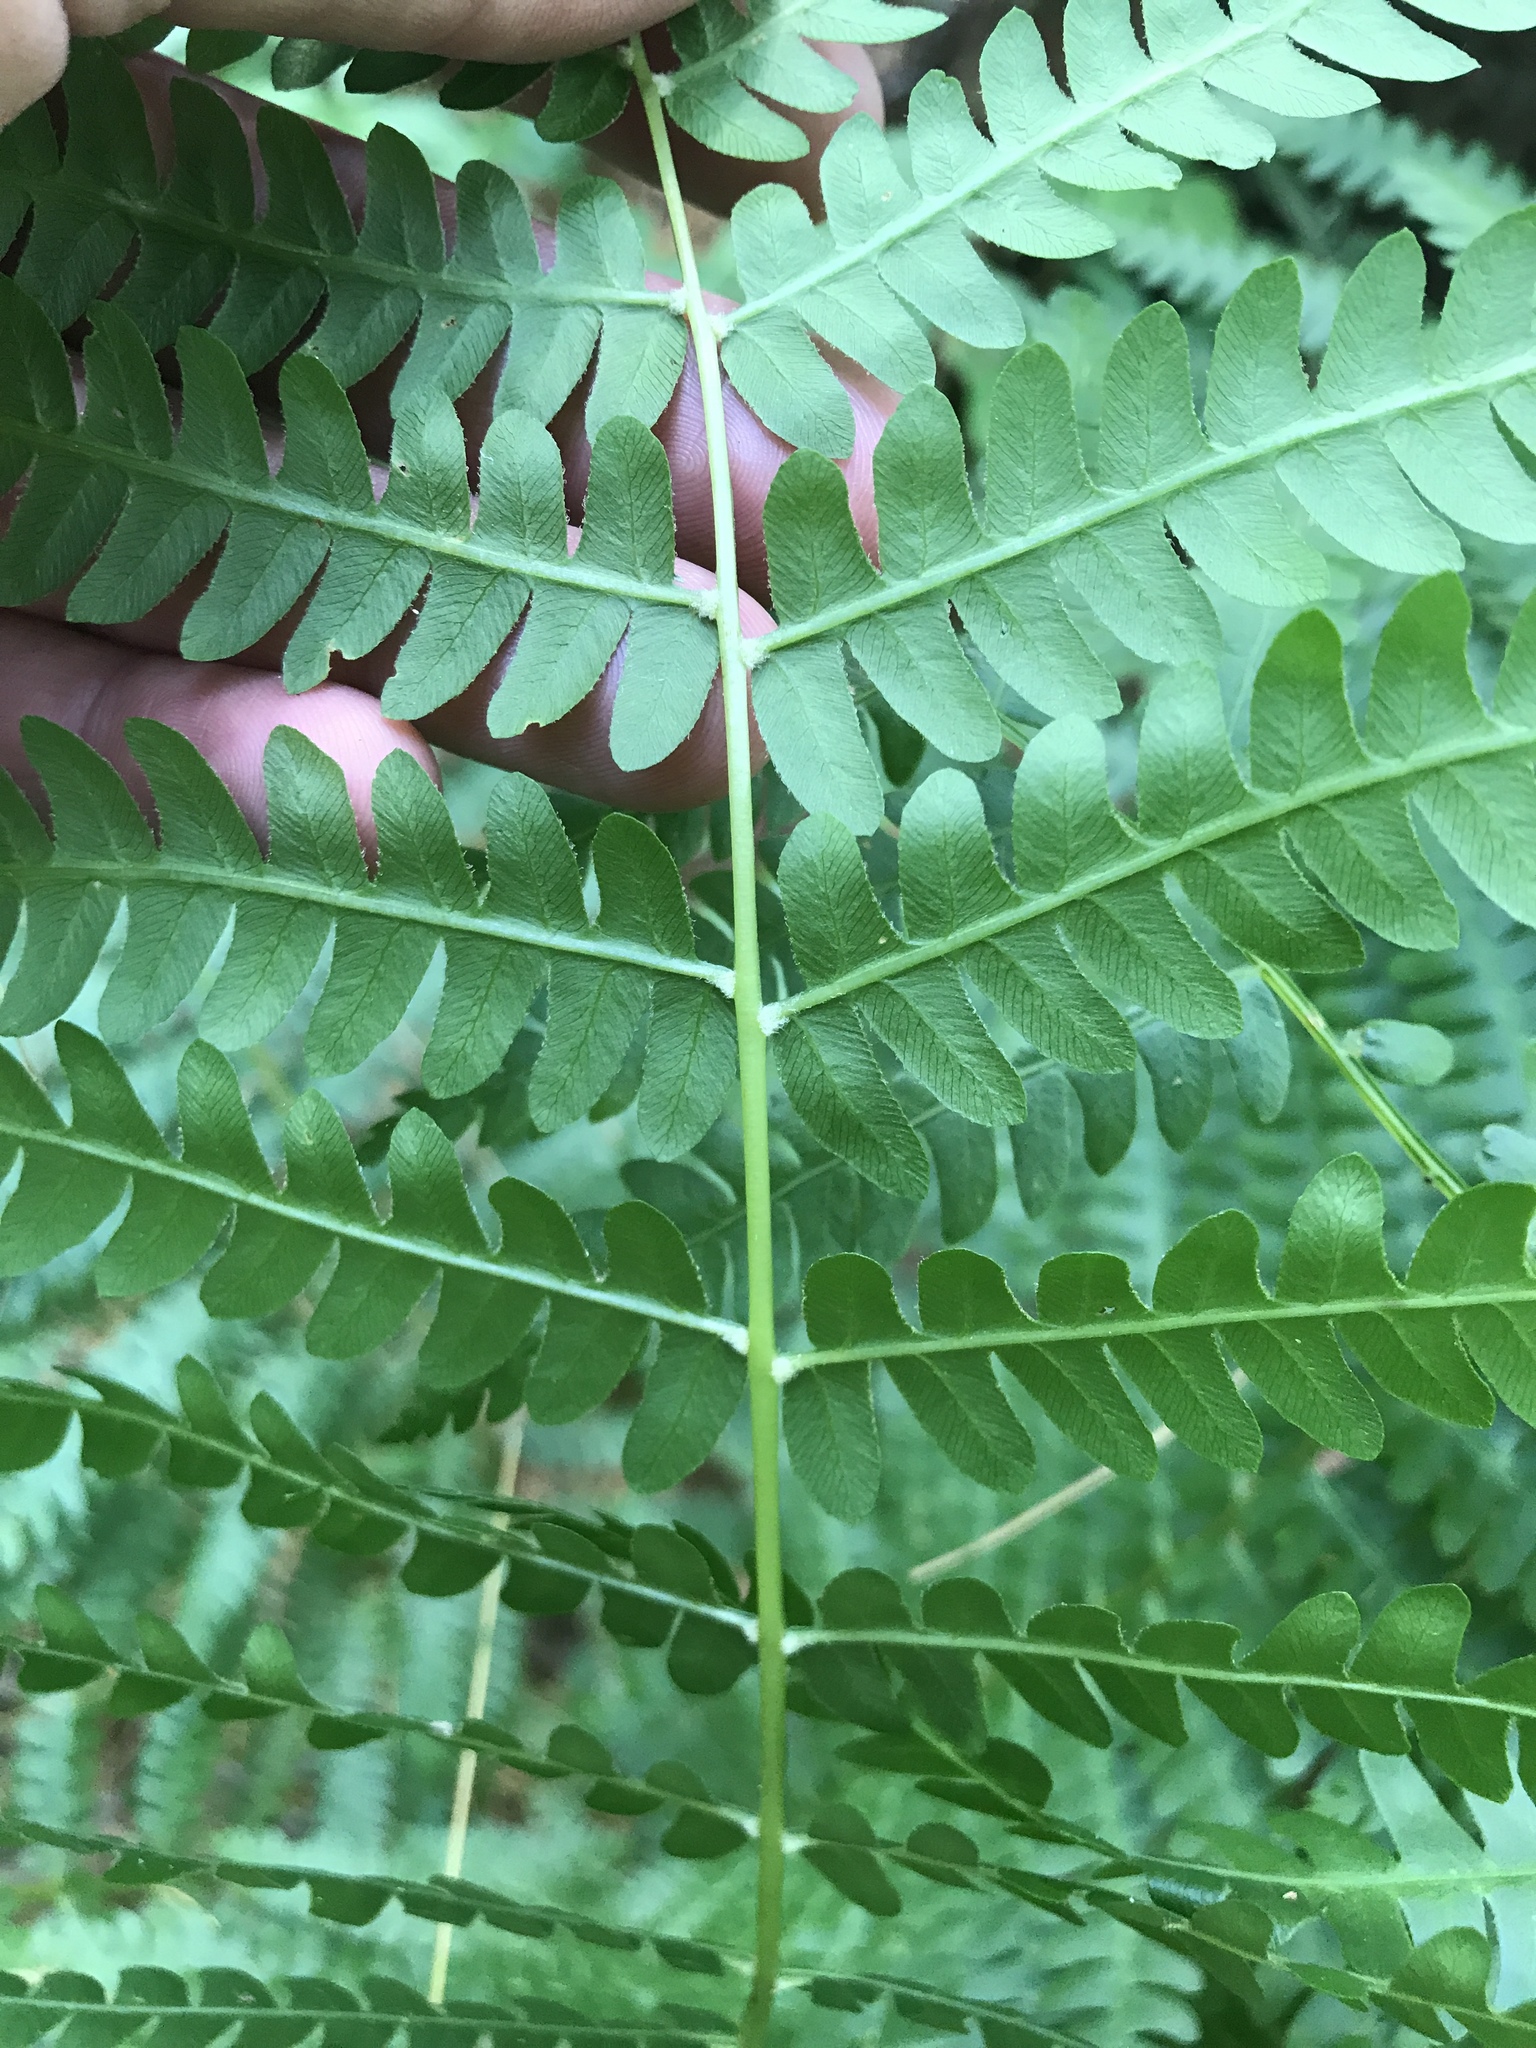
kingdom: Plantae
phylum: Tracheophyta
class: Polypodiopsida
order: Osmundales
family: Osmundaceae
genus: Osmundastrum
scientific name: Osmundastrum cinnamomeum
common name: Cinnamon fern
